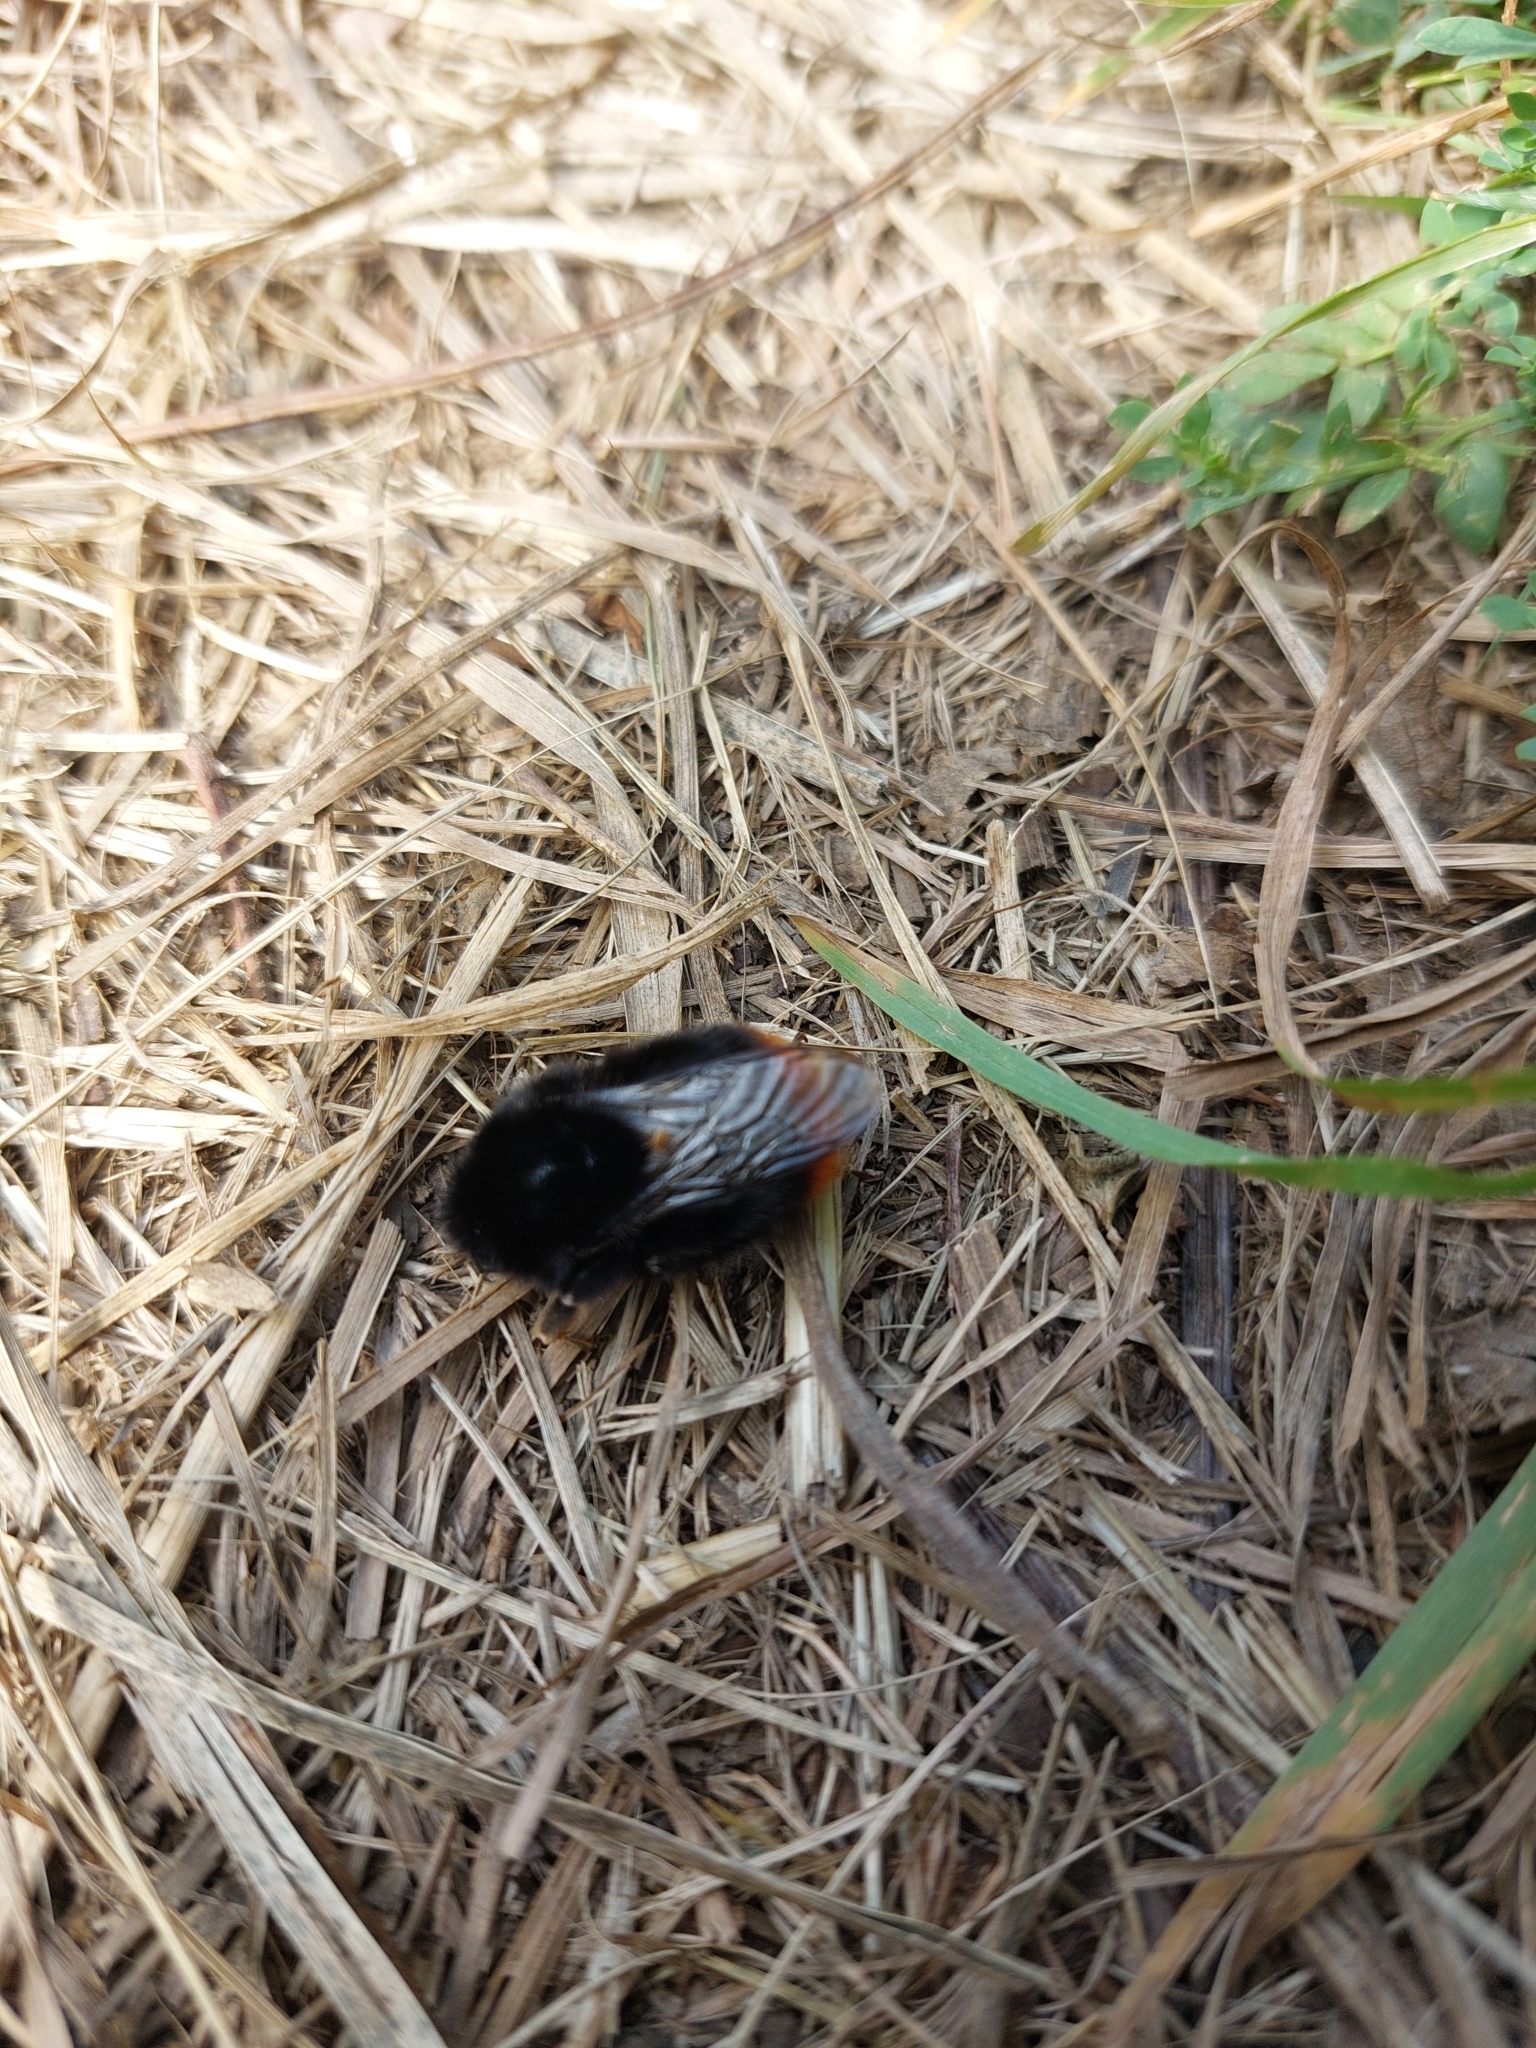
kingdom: Animalia
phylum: Arthropoda
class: Insecta
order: Hymenoptera
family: Apidae
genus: Bombus
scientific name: Bombus lapidarius
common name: Large red-tailed humble-bee
